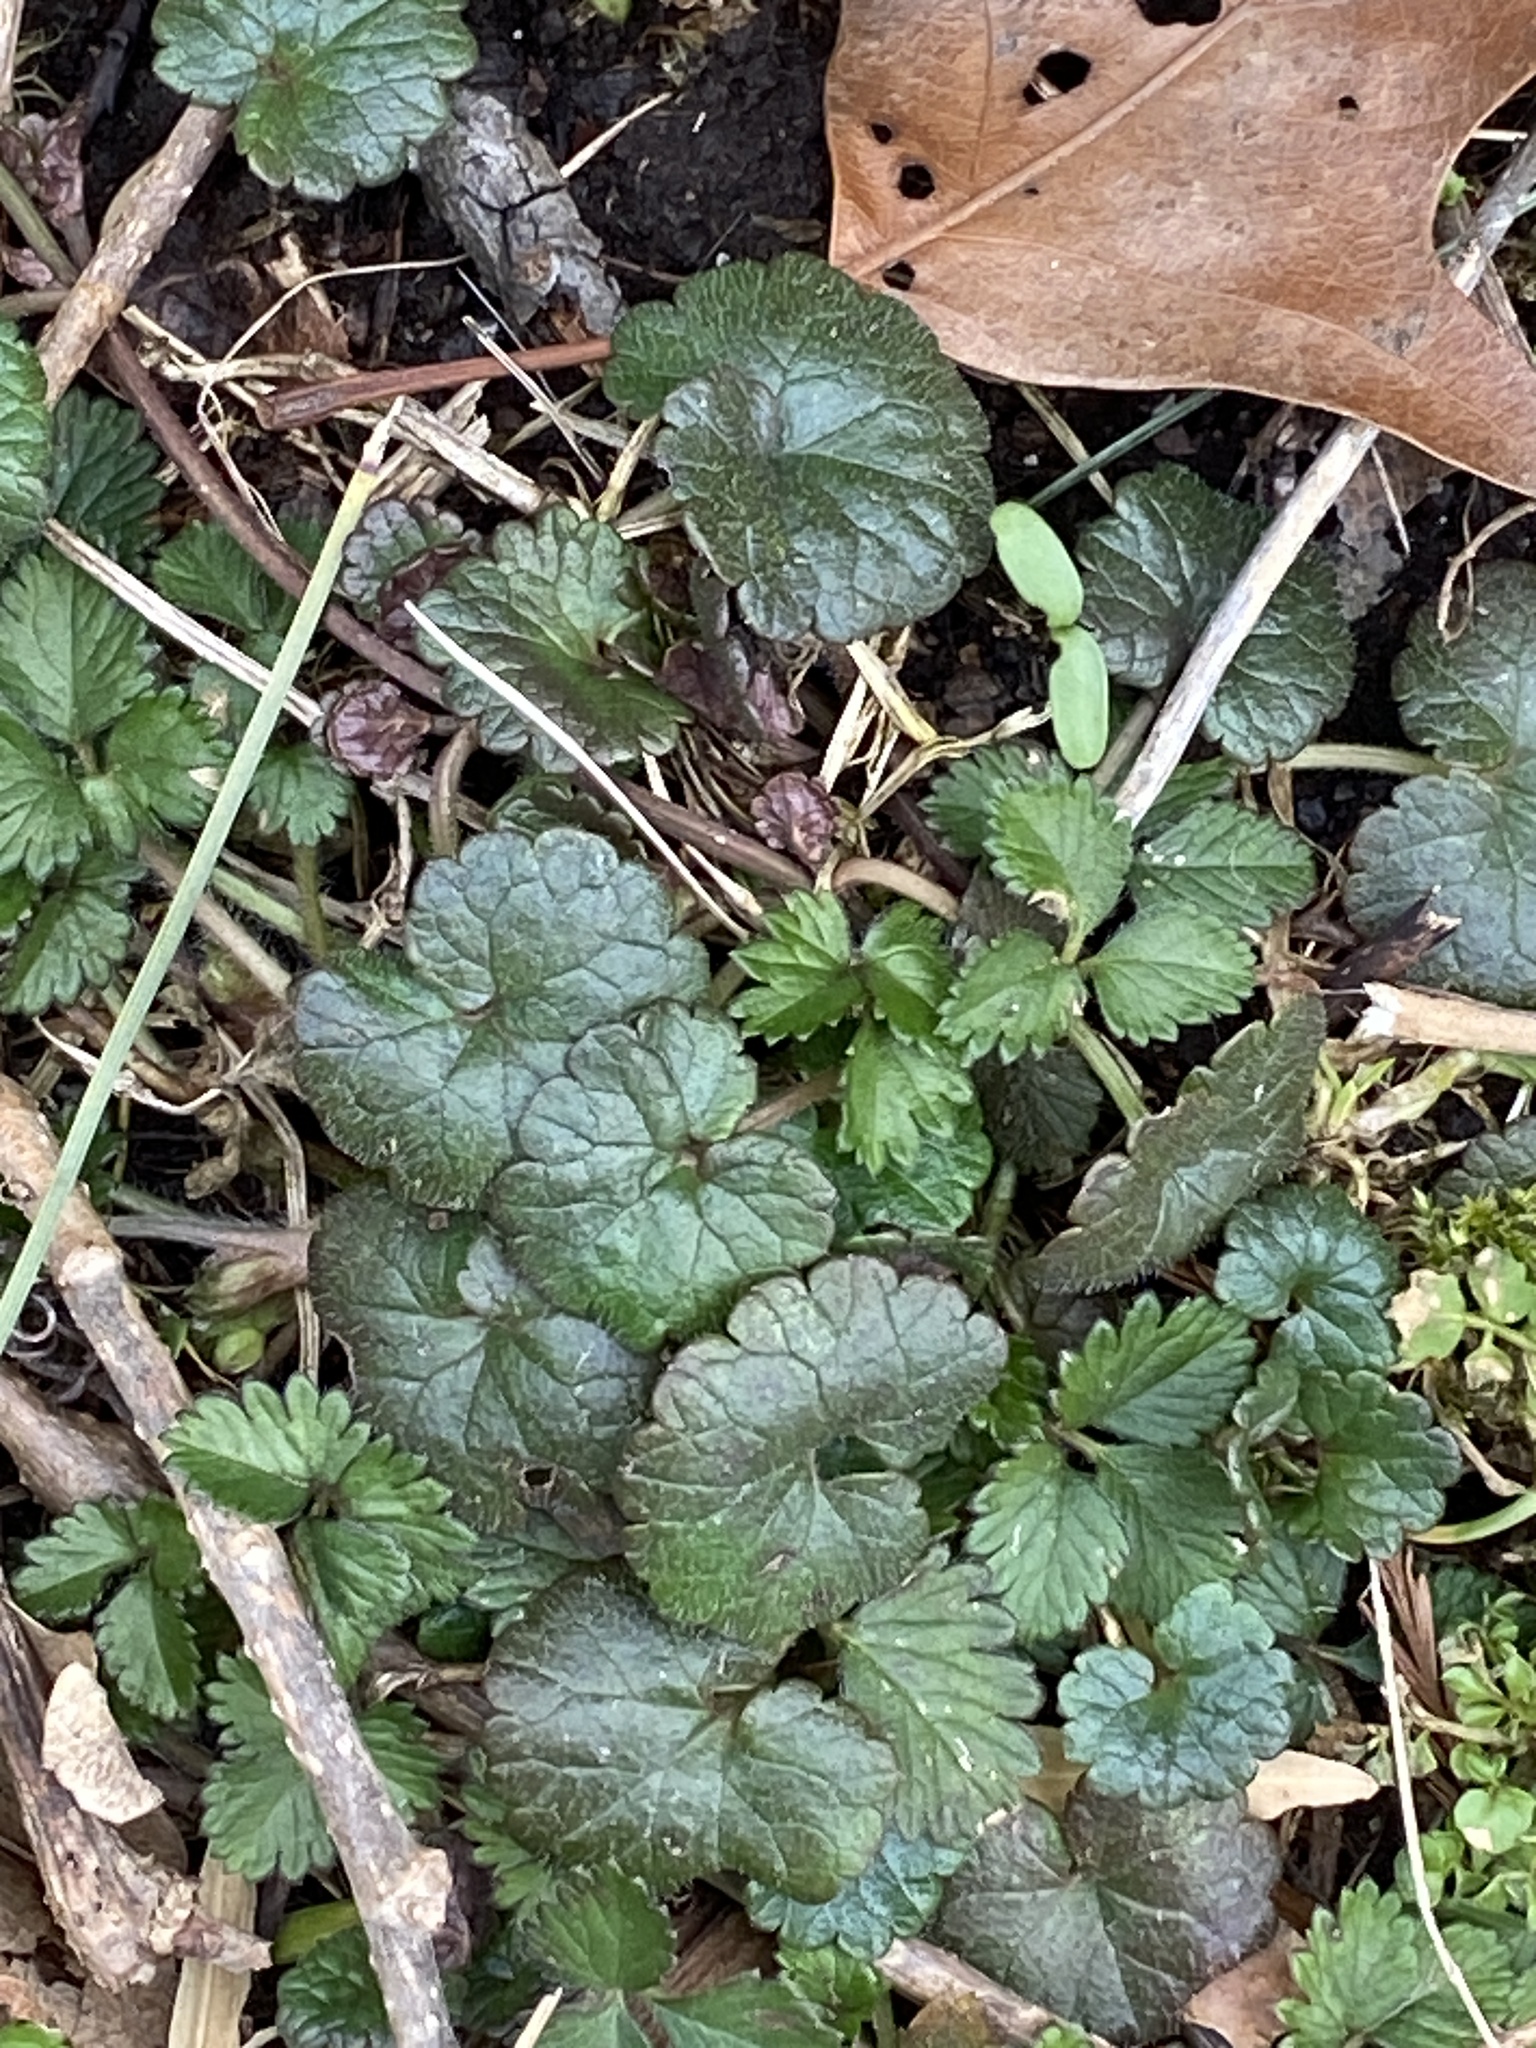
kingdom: Plantae
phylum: Tracheophyta
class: Magnoliopsida
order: Lamiales
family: Lamiaceae
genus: Glechoma
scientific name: Glechoma hederacea
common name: Ground ivy
